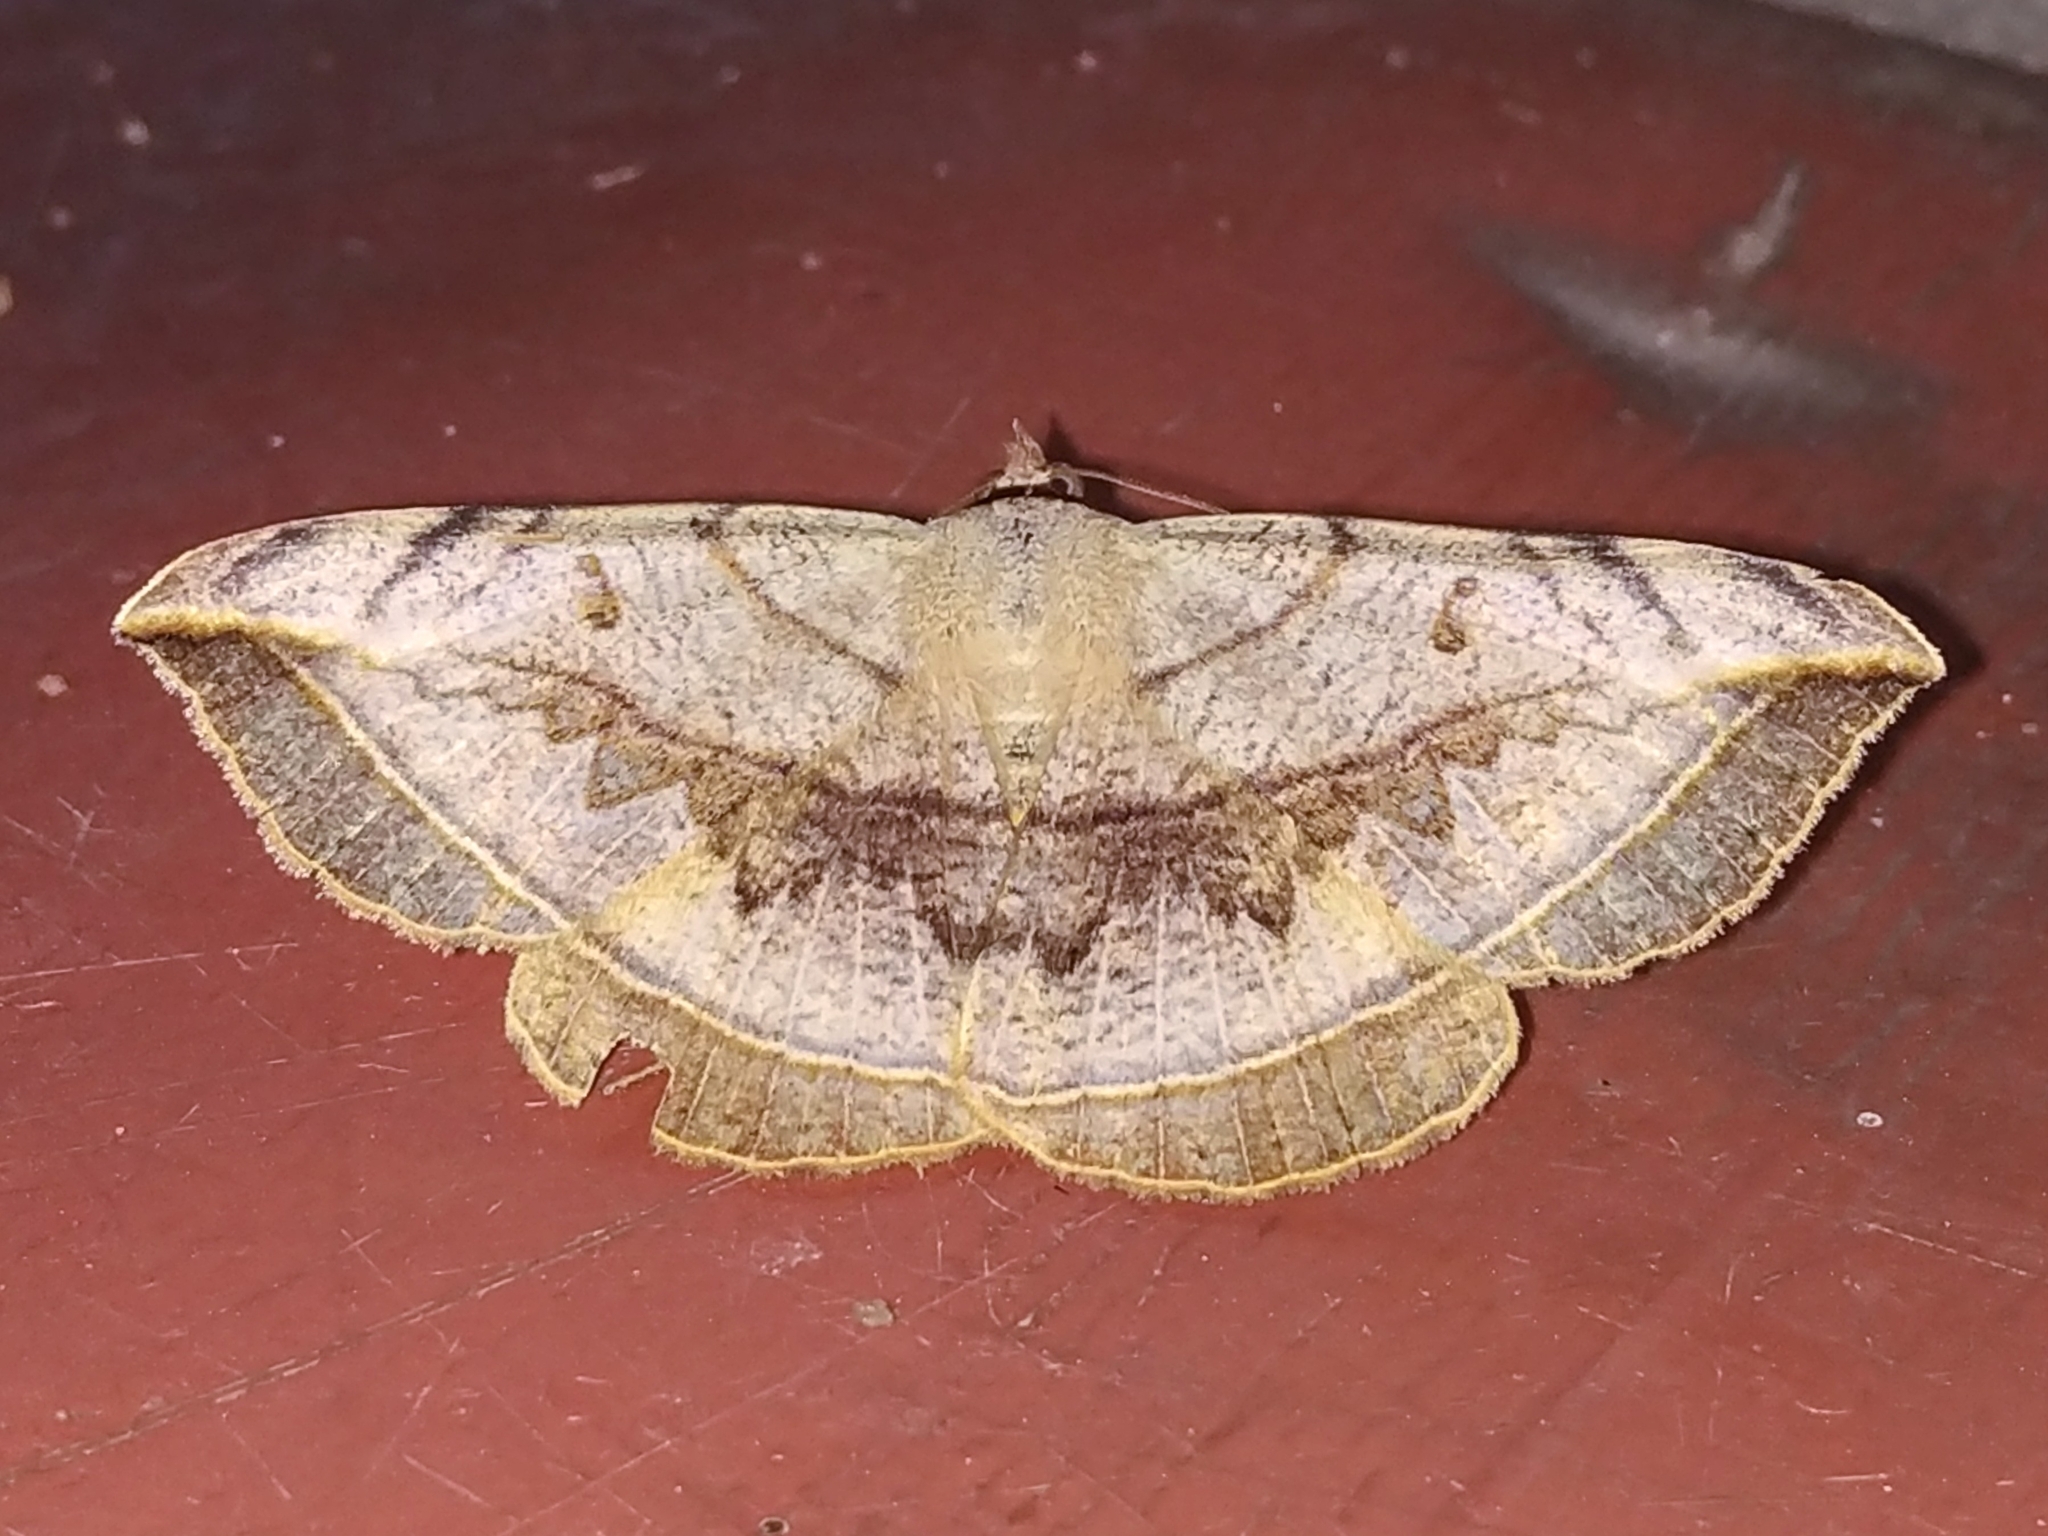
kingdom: Animalia
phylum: Arthropoda
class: Insecta
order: Lepidoptera
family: Erebidae
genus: Entomogramma
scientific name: Entomogramma mediocris
